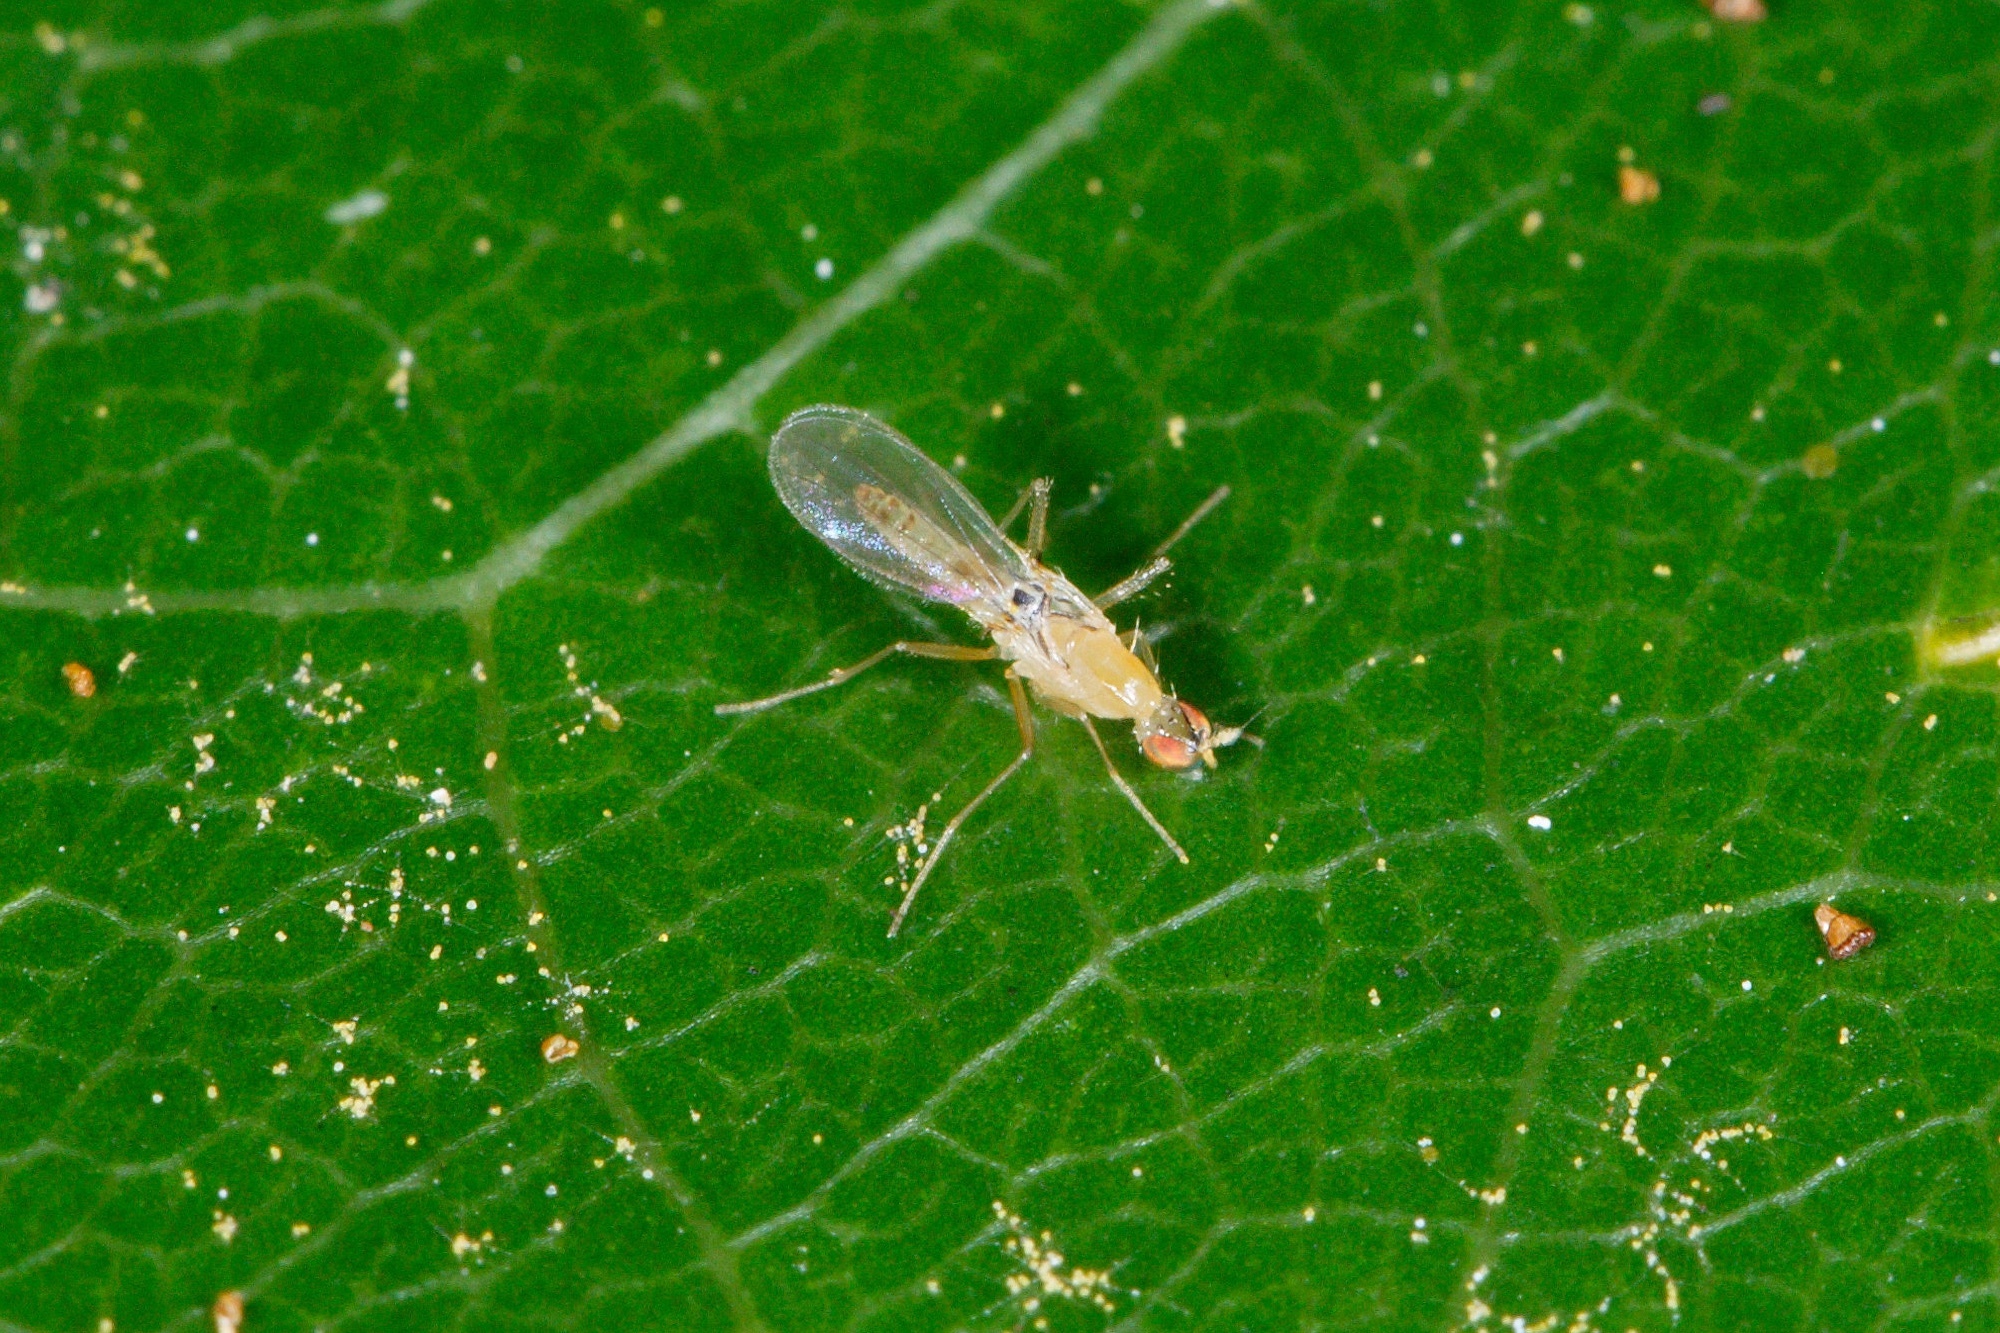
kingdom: Animalia
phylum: Arthropoda
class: Insecta
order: Diptera
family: Empididae
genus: Monodromia
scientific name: Monodromia fragilis
